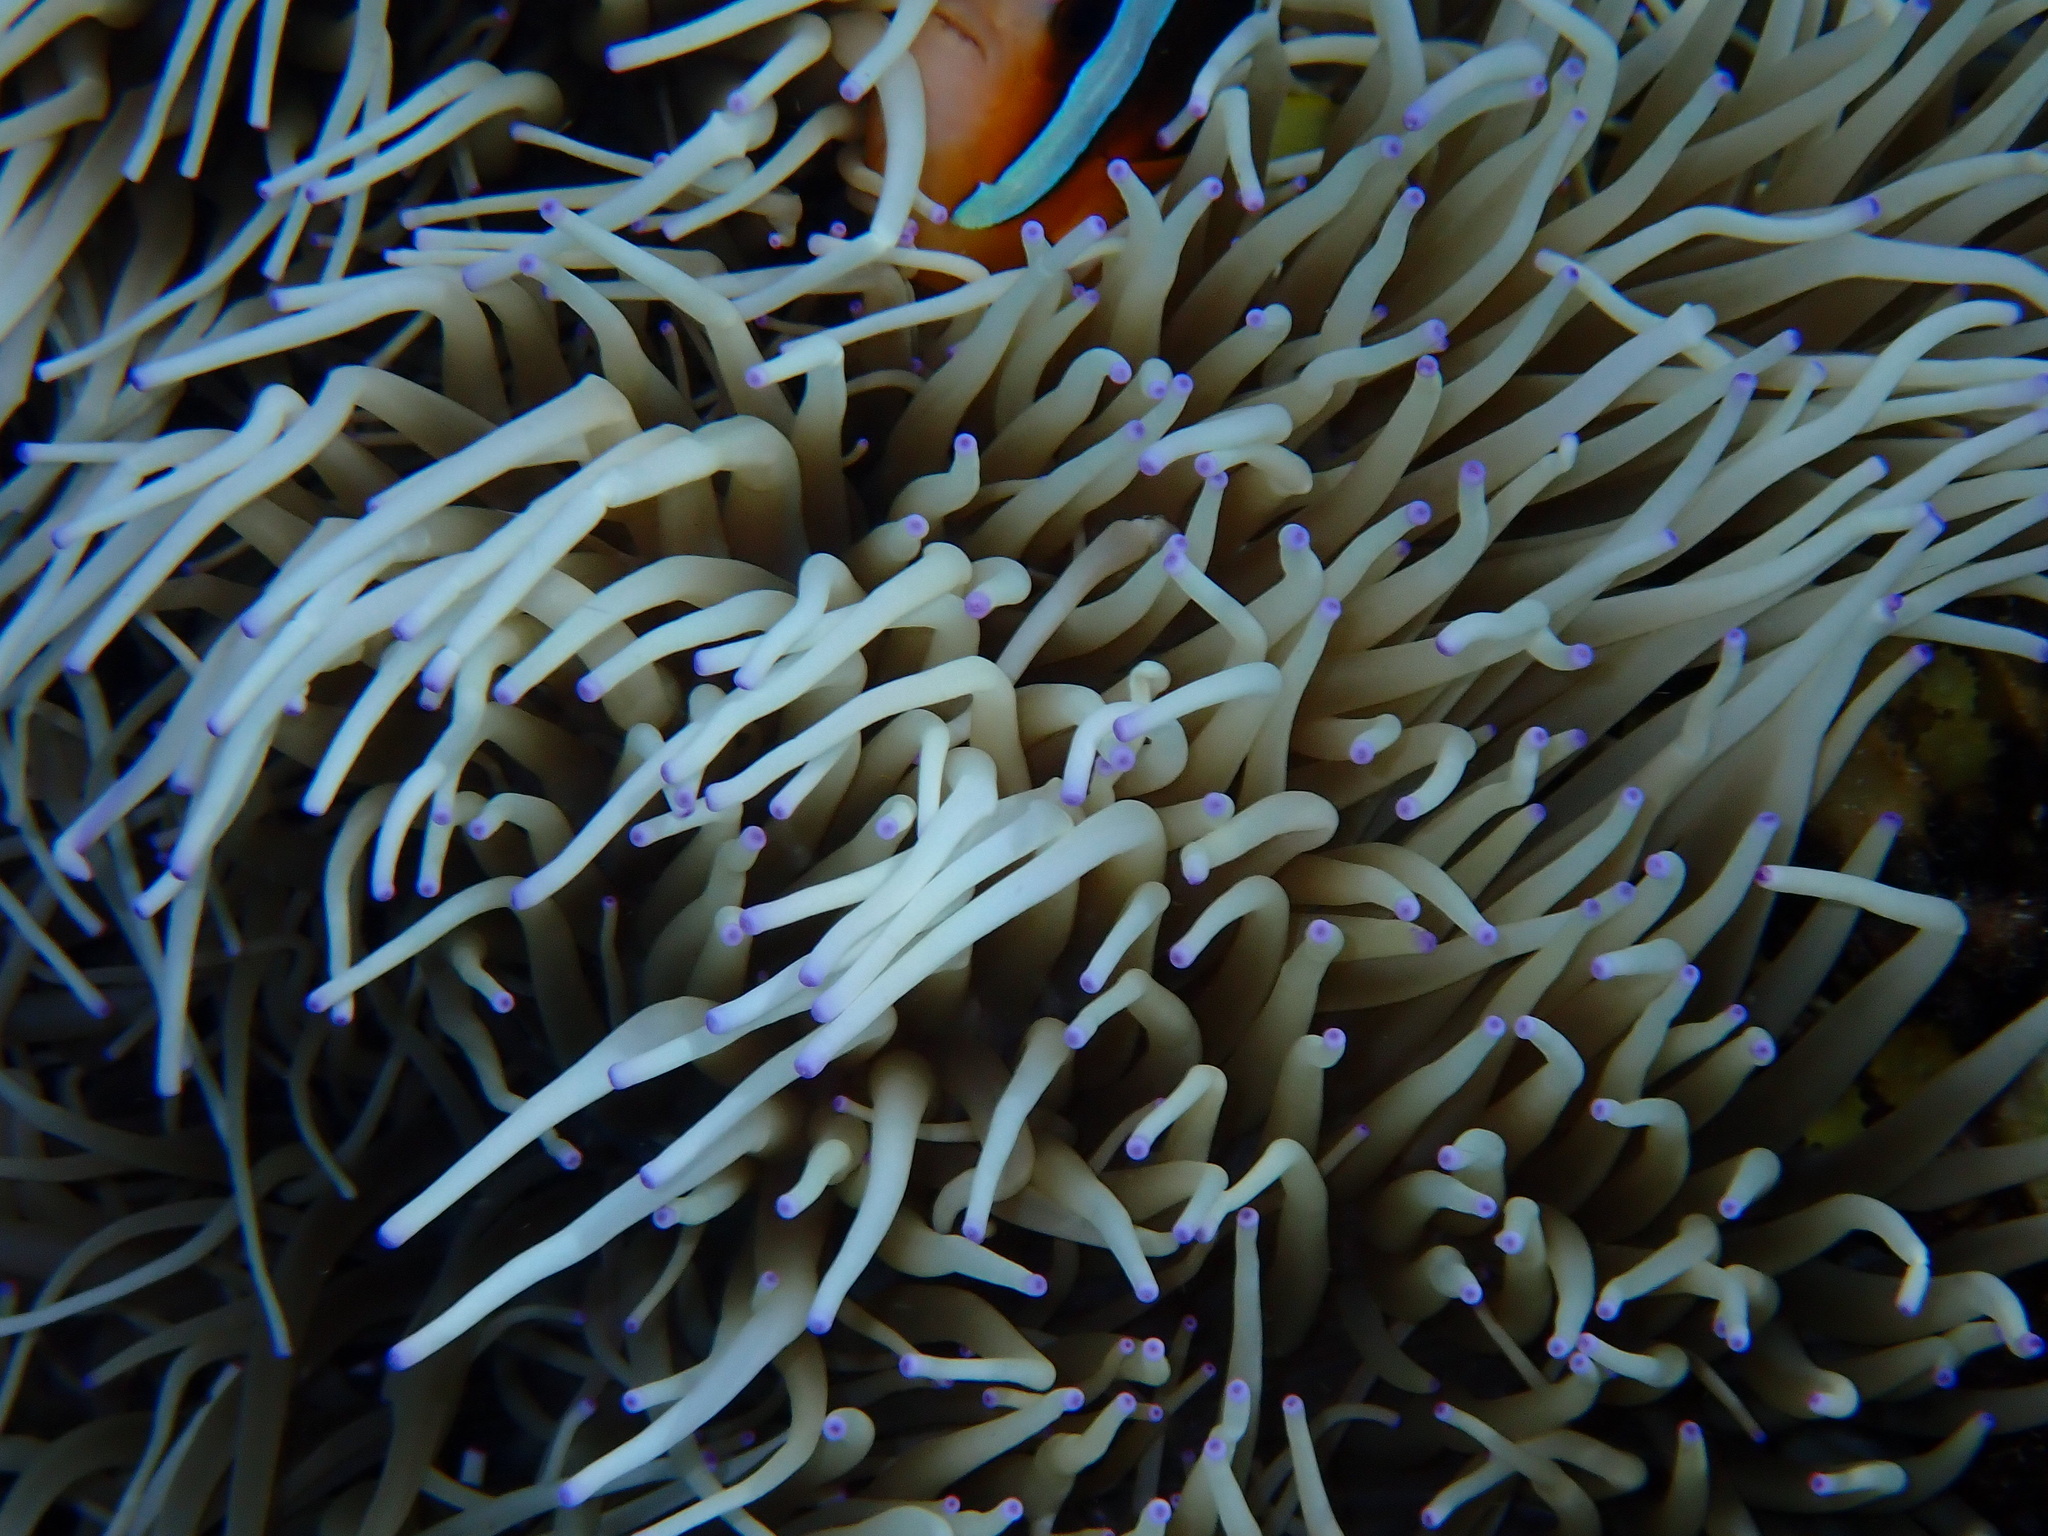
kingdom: Animalia
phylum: Chordata
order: Perciformes
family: Pomacentridae
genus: Amphiprion
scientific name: Amphiprion clarkii
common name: Clark's anemonefish
